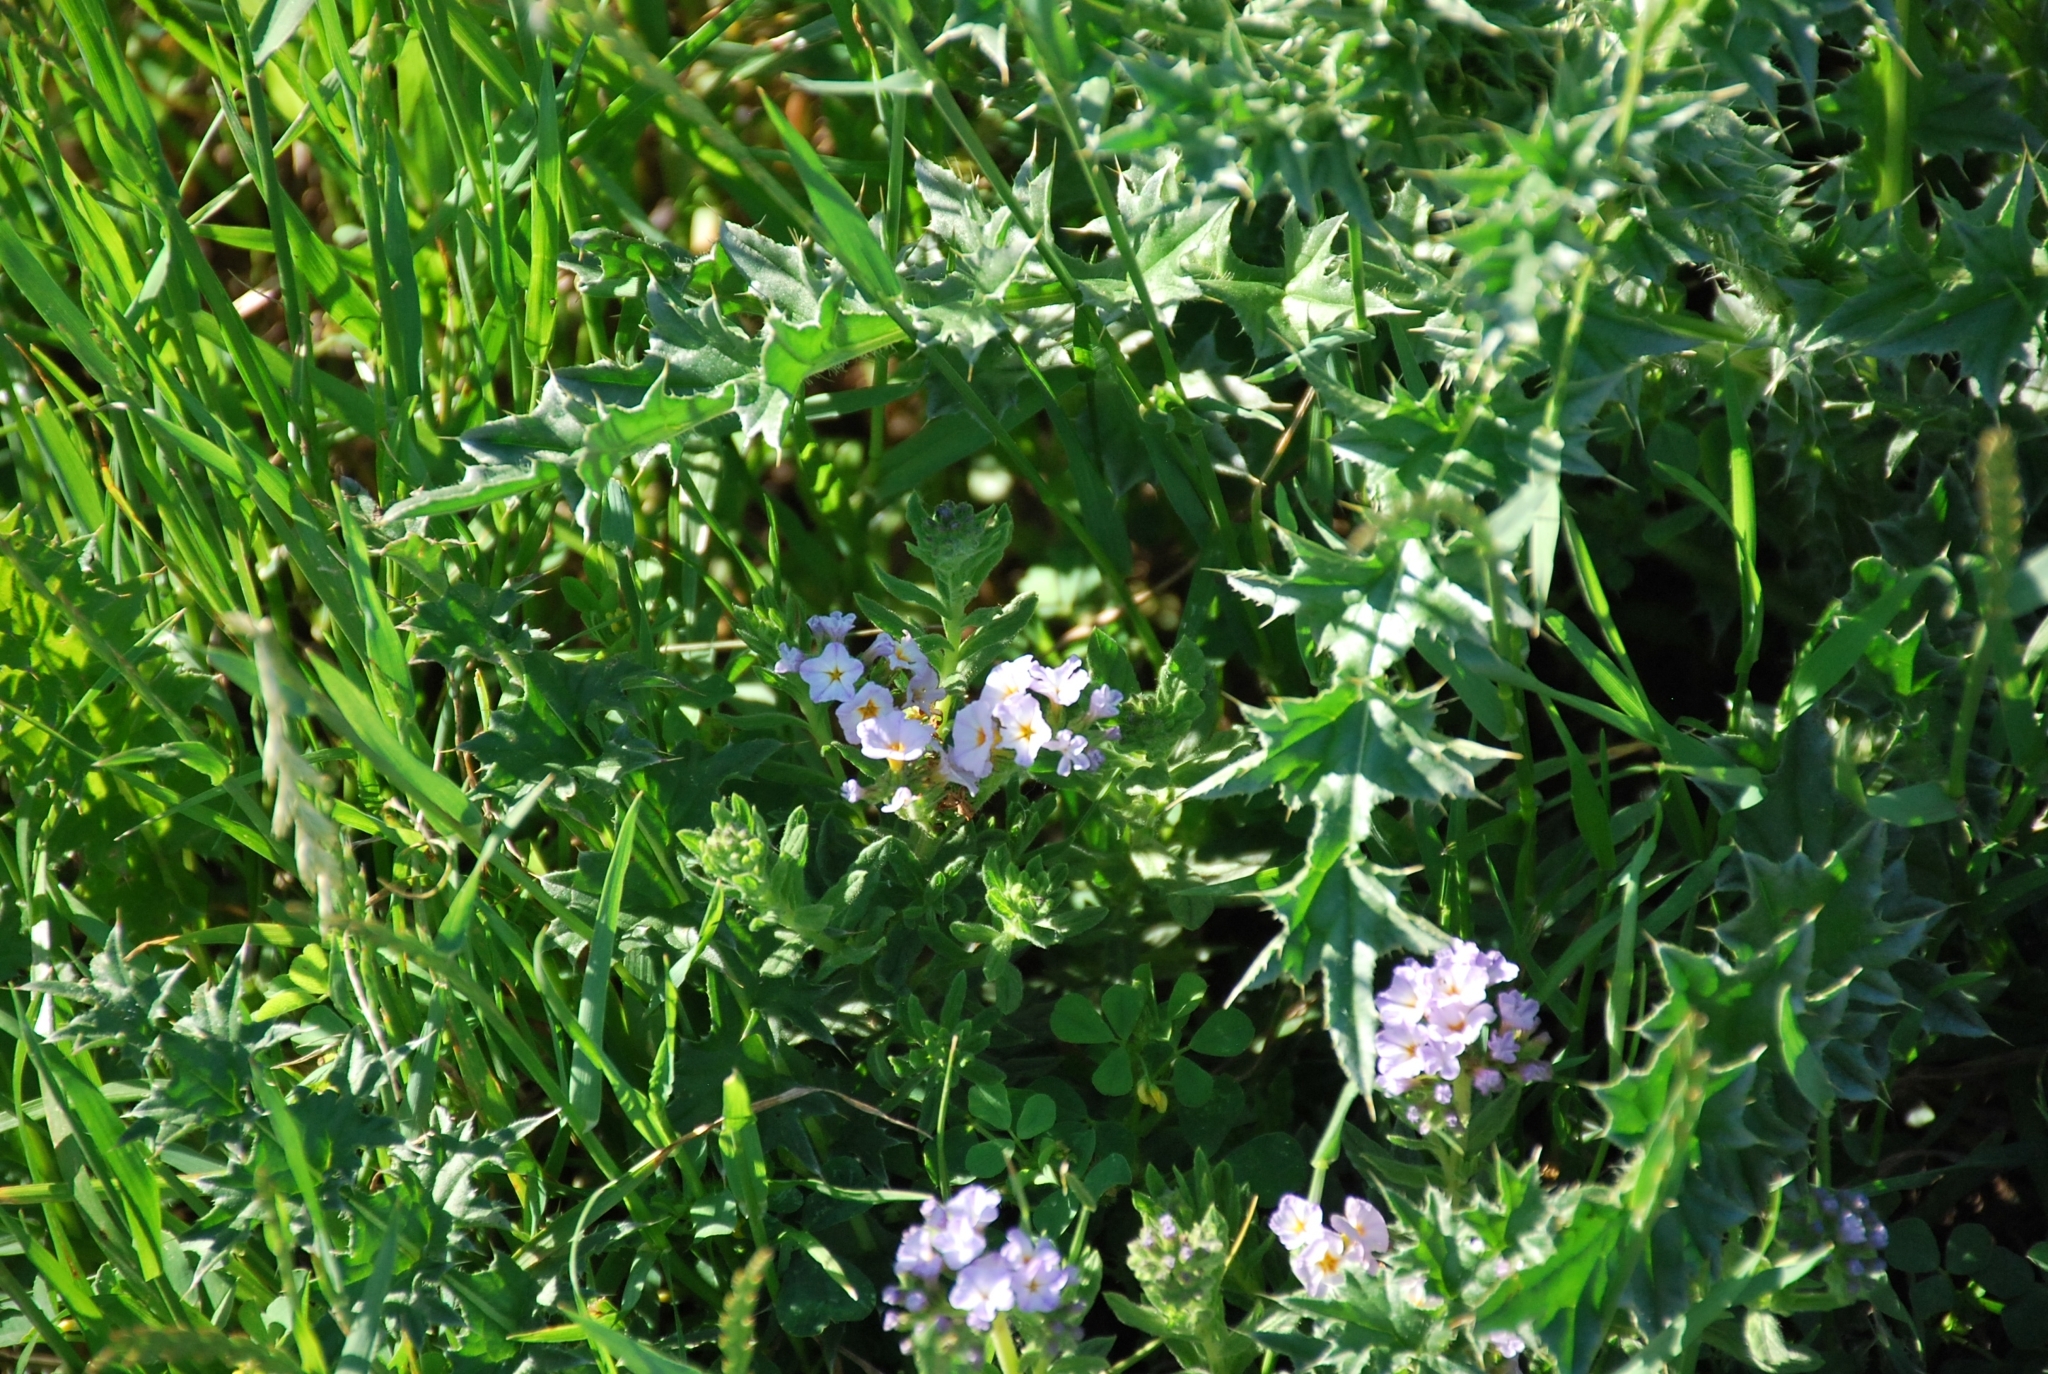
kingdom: Plantae
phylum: Tracheophyta
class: Magnoliopsida
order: Boraginales
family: Heliotropiaceae
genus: Heliotropium
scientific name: Heliotropium amplexicaule
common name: Clasping heliotrope
